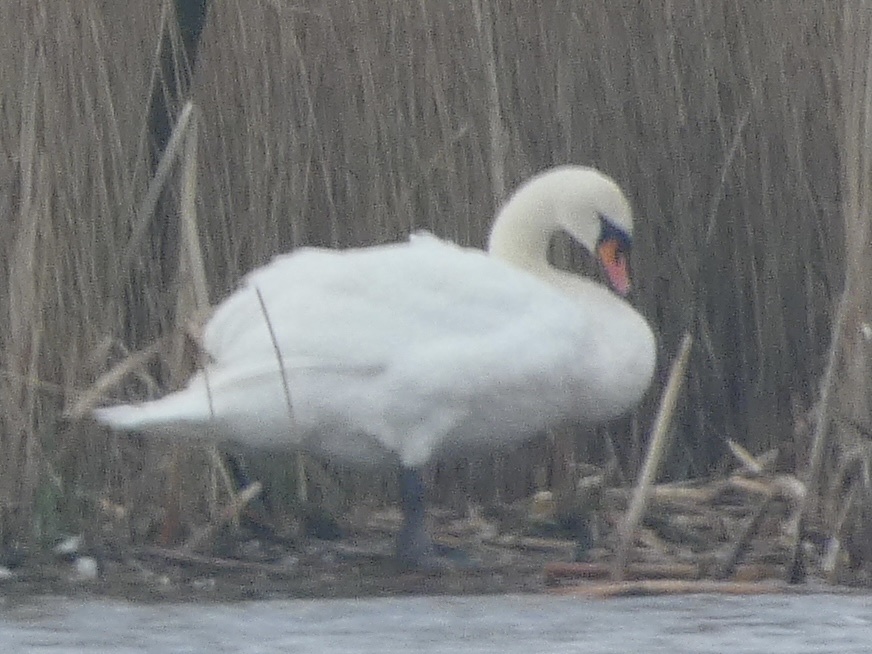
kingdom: Animalia
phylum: Chordata
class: Aves
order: Anseriformes
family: Anatidae
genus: Cygnus
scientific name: Cygnus olor
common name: Mute swan
